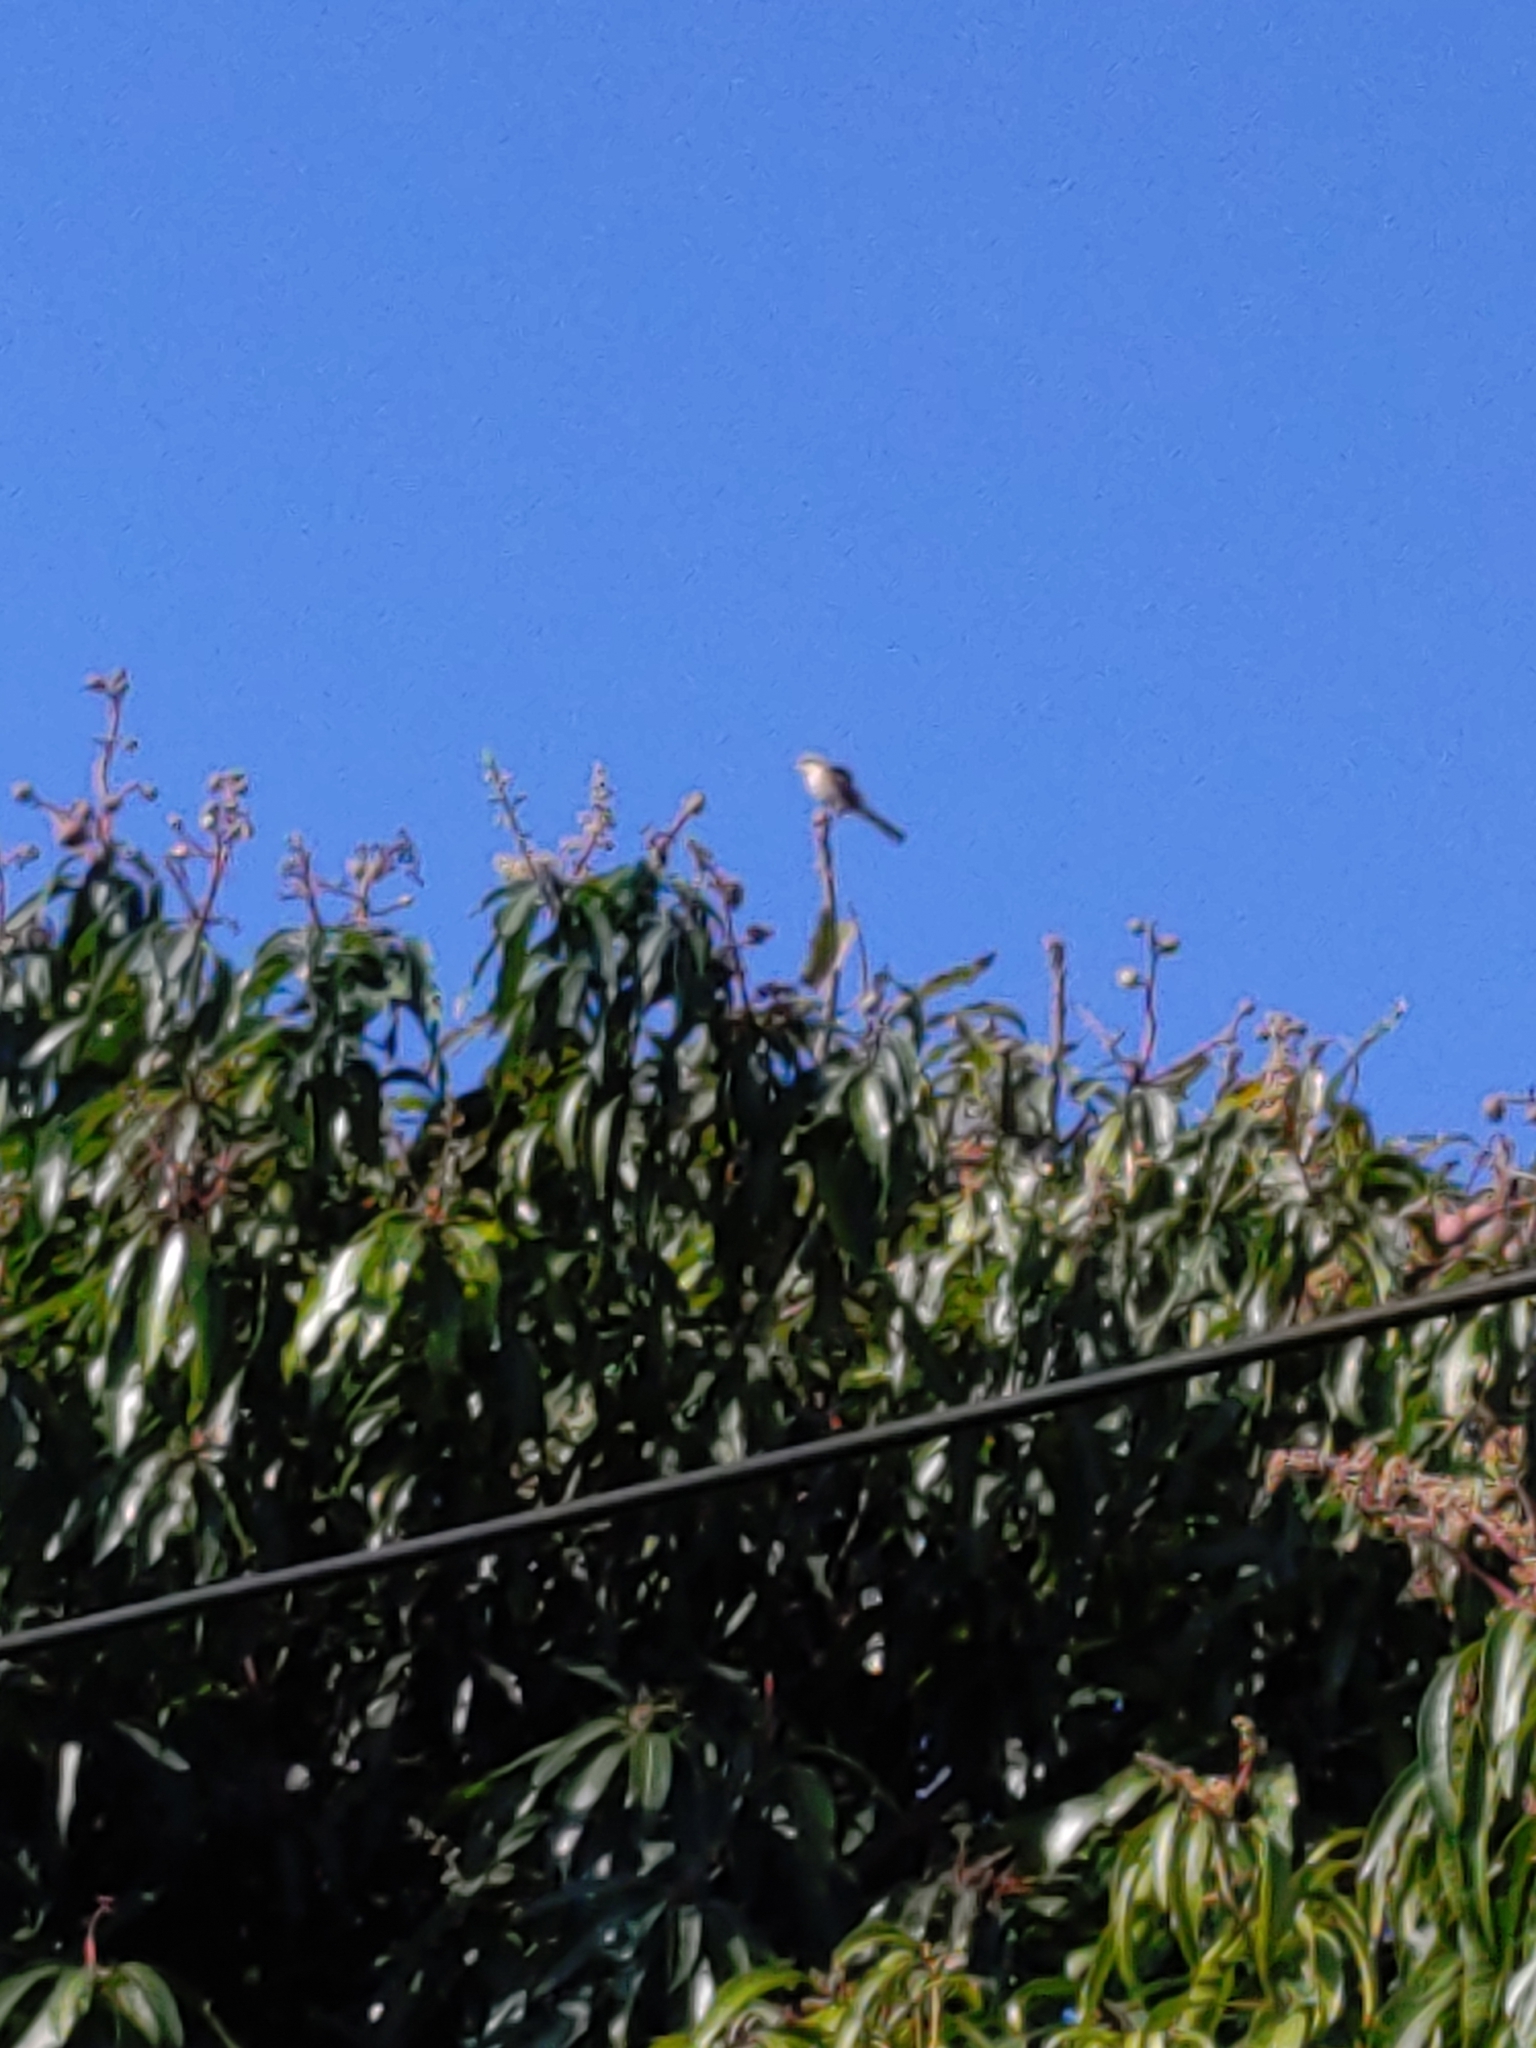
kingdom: Animalia
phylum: Chordata
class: Aves
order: Passeriformes
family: Laniidae
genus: Lanius
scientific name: Lanius cristatus
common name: Brown shrike
